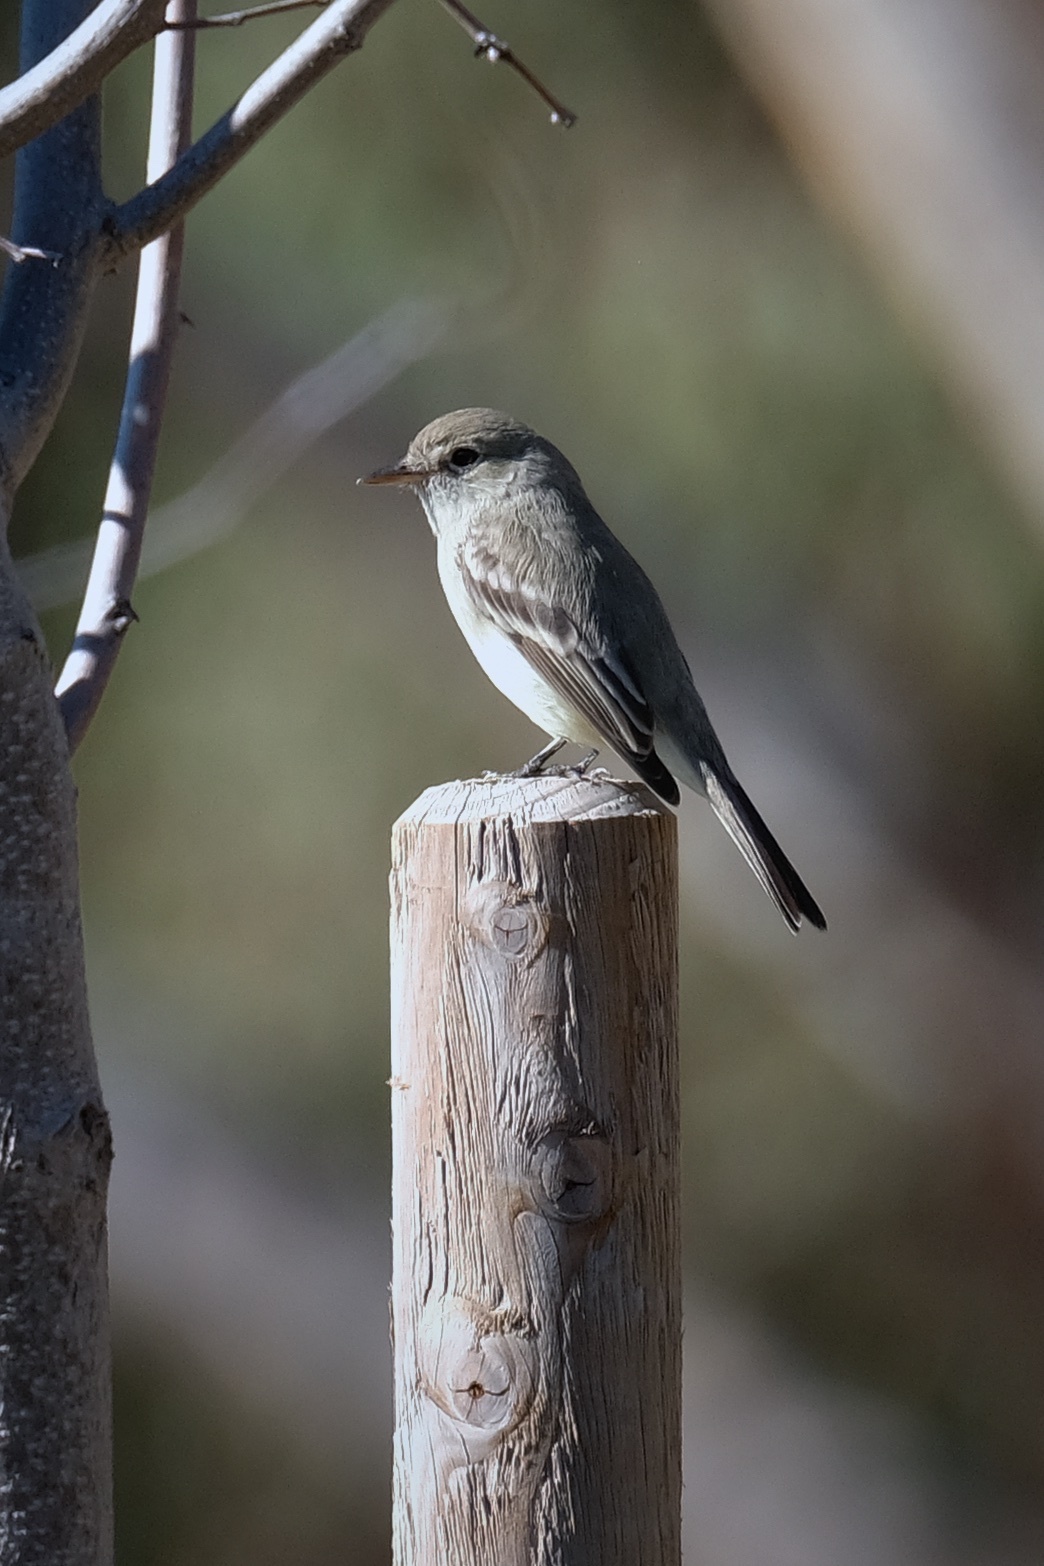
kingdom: Animalia
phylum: Chordata
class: Aves
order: Passeriformes
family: Tyrannidae
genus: Empidonax
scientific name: Empidonax wrightii
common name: Gray flycatcher
